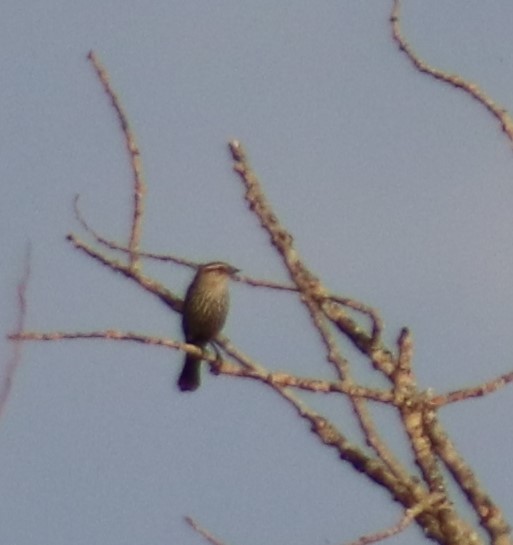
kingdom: Animalia
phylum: Chordata
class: Aves
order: Passeriformes
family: Icteridae
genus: Agelaius
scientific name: Agelaius phoeniceus
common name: Red-winged blackbird
